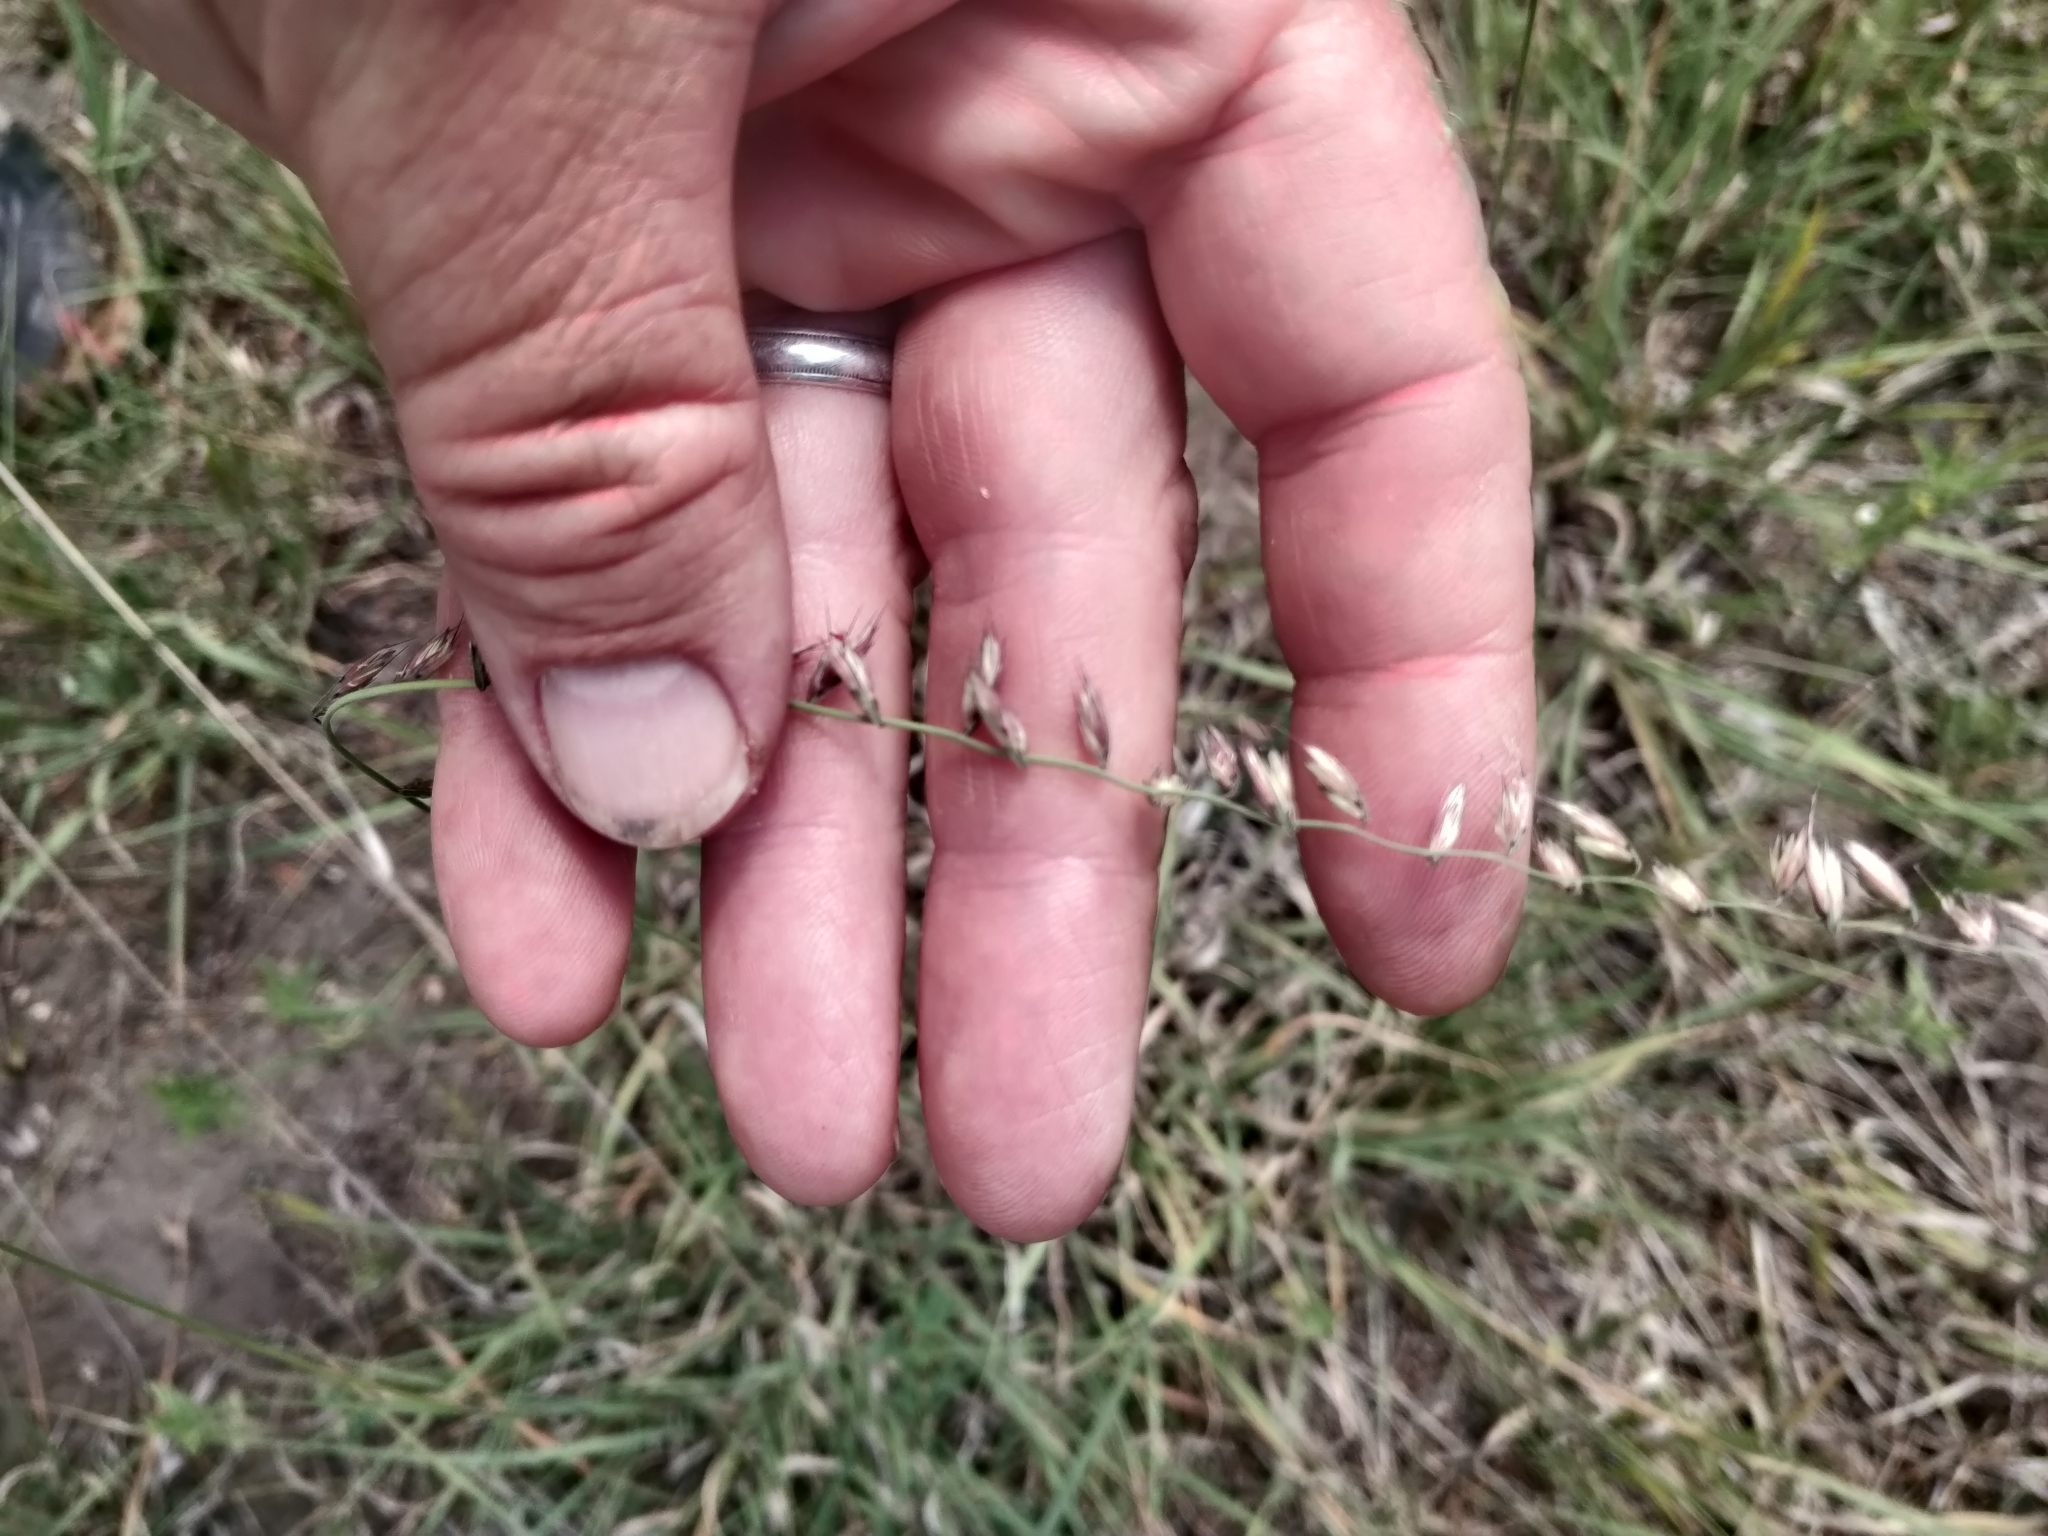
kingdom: Plantae
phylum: Tracheophyta
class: Liliopsida
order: Poales
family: Poaceae
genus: Bouteloua
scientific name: Bouteloua curtipendula
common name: Side-oats grama
